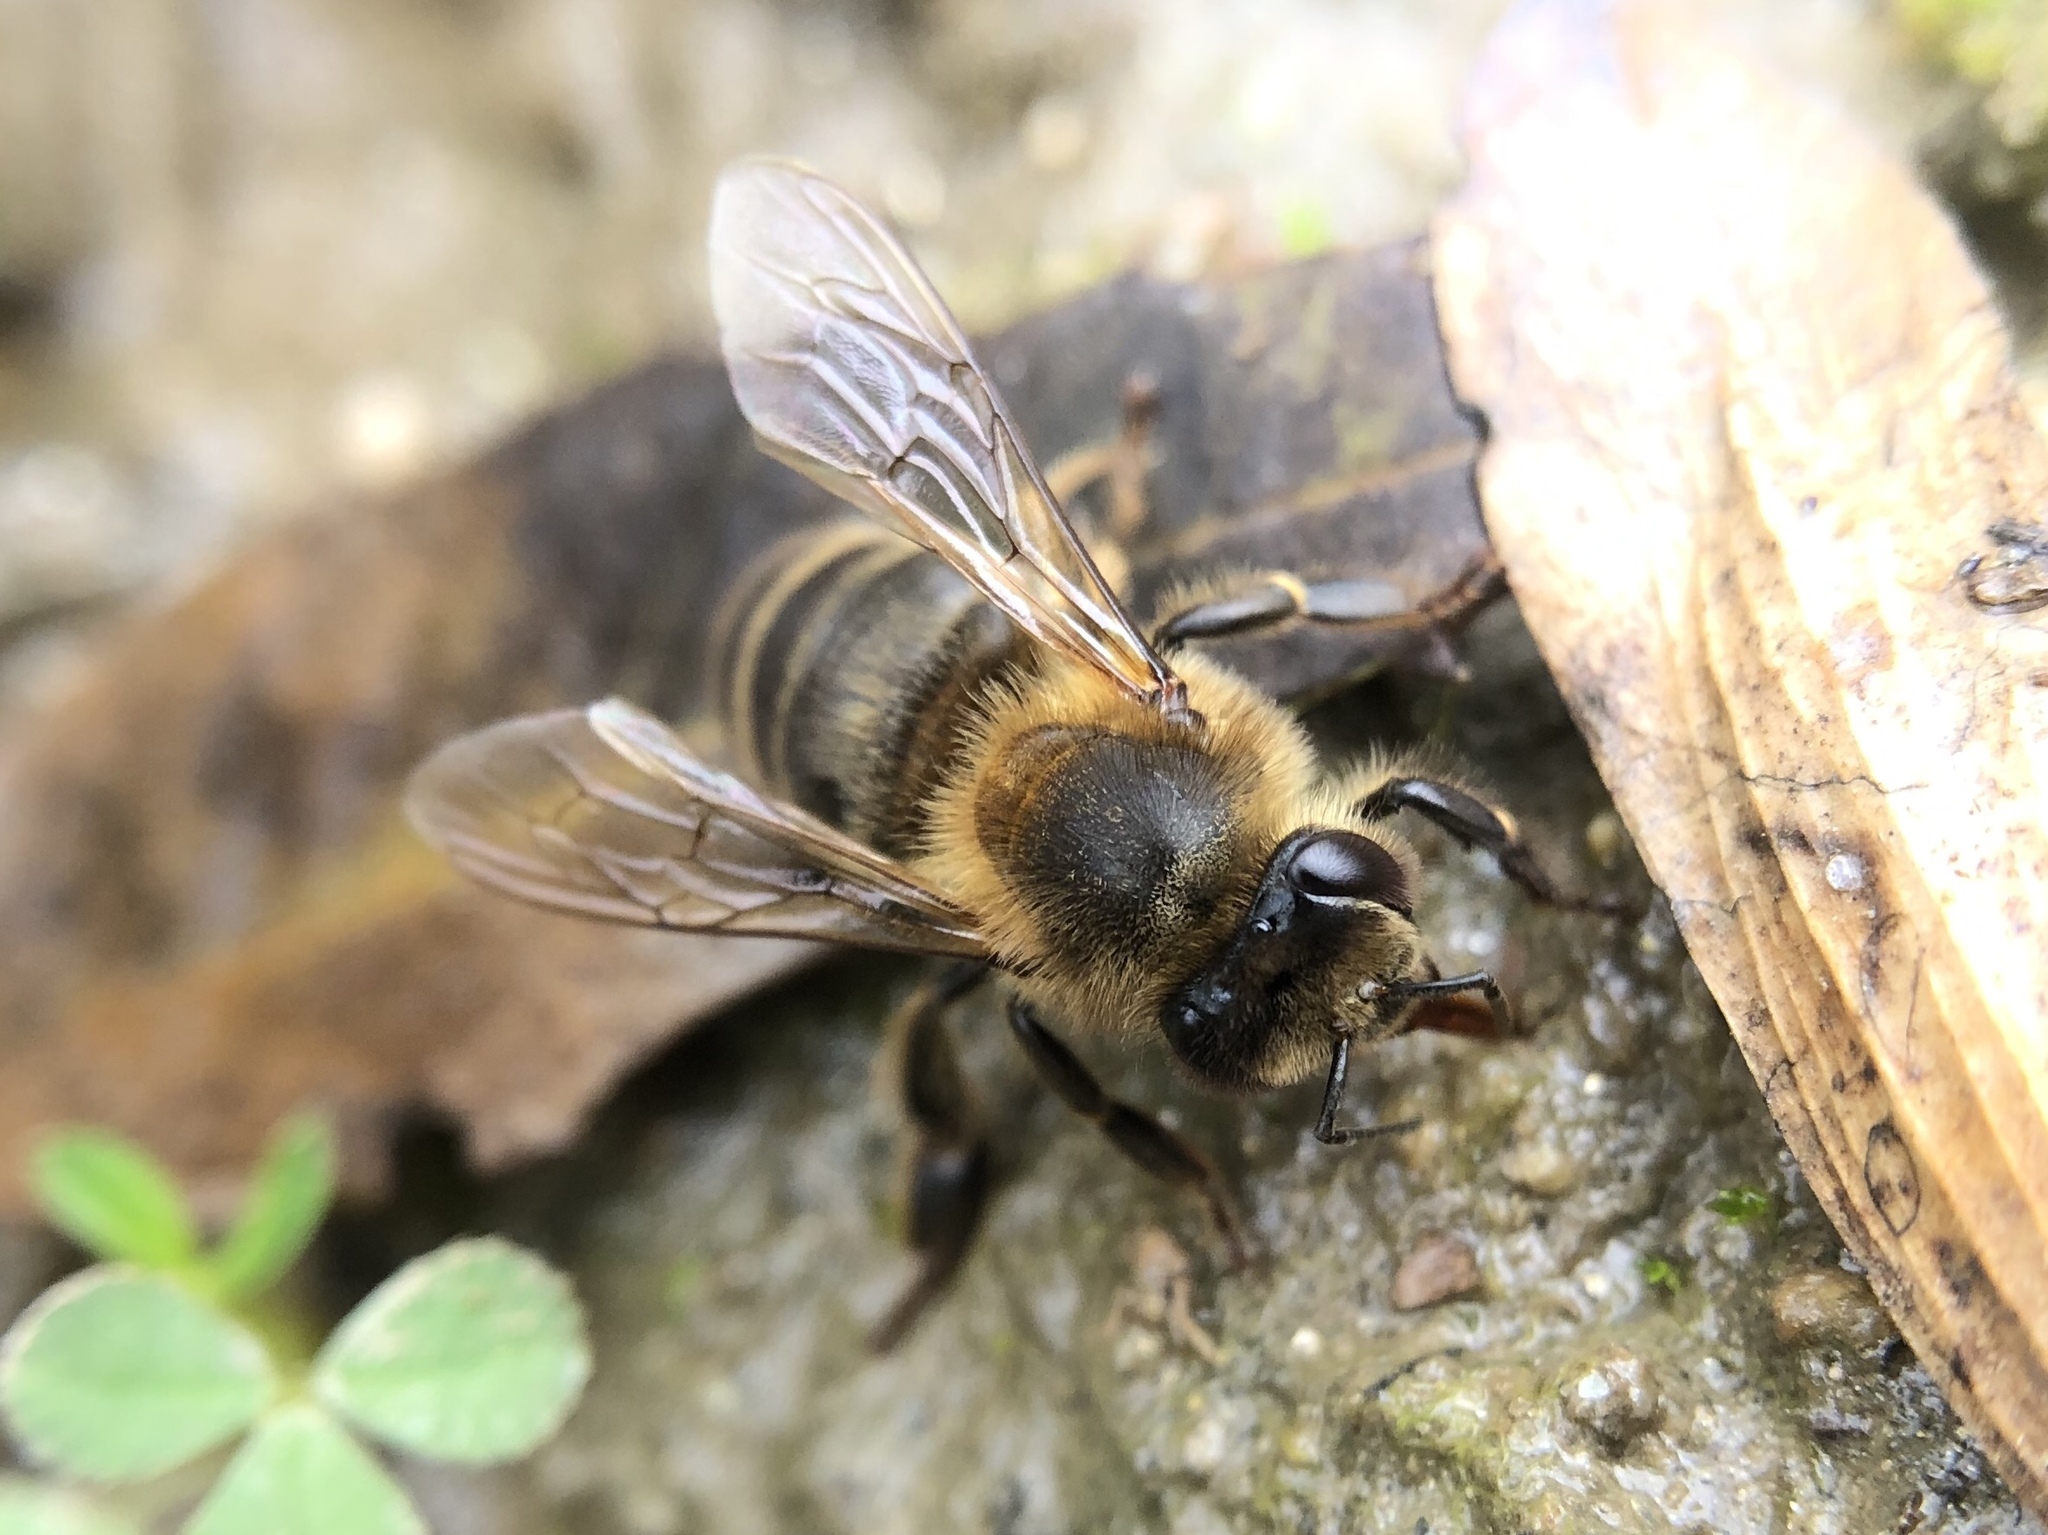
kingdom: Animalia
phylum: Arthropoda
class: Insecta
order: Hymenoptera
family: Apidae
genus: Apis
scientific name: Apis mellifera
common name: Honey bee
